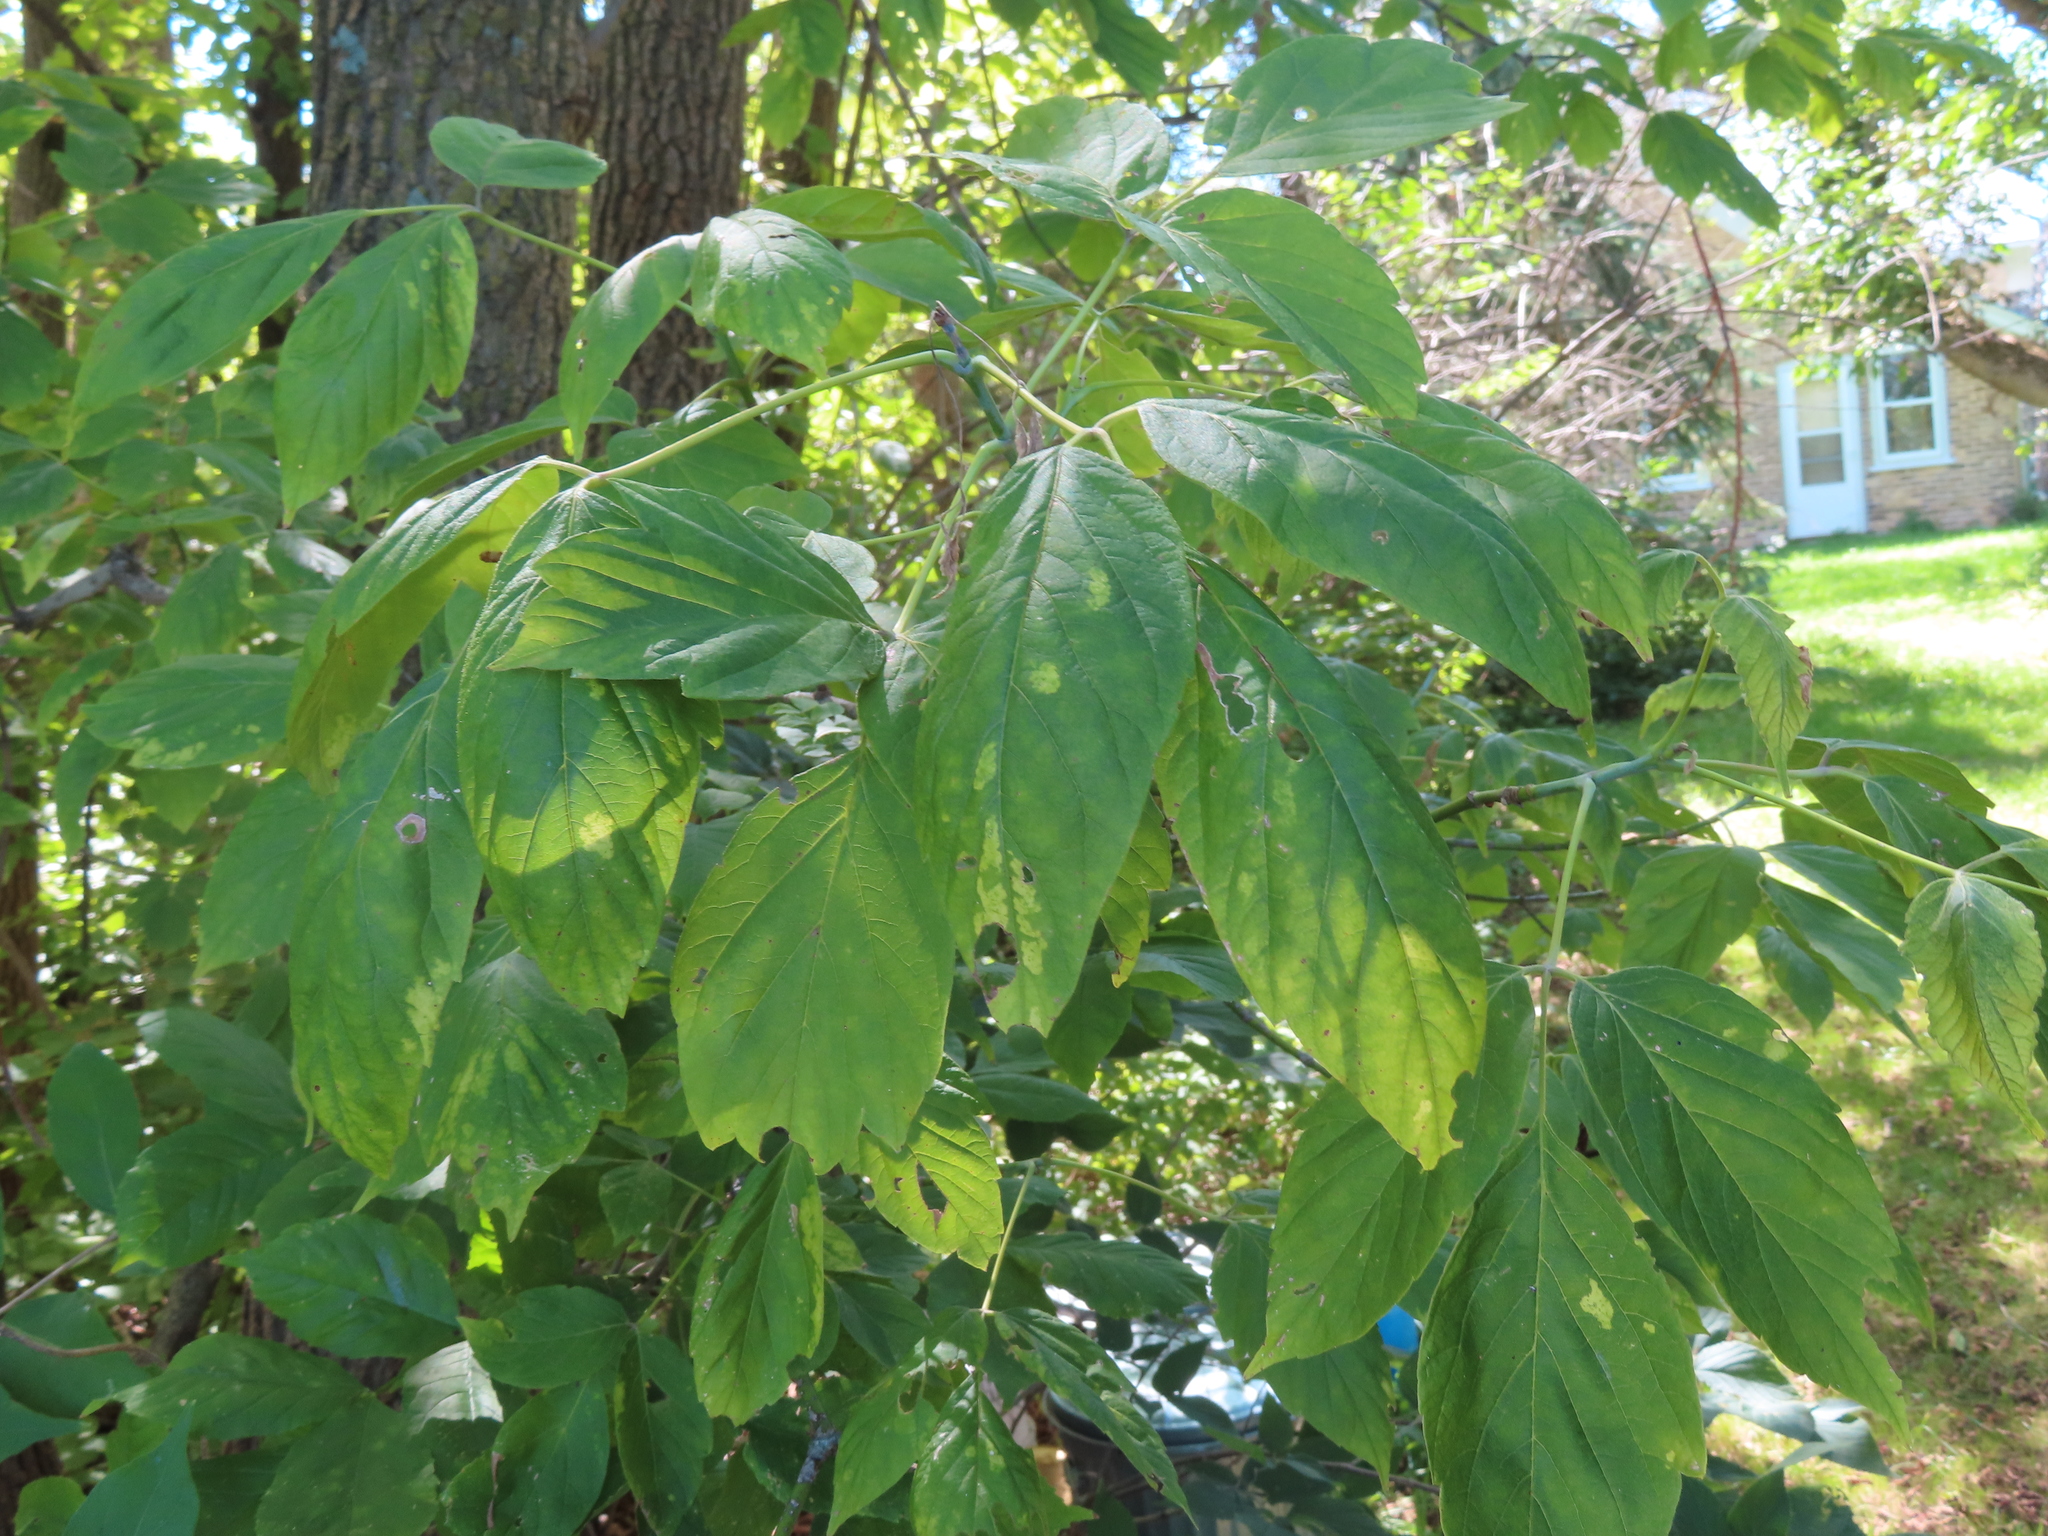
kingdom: Plantae
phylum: Tracheophyta
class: Magnoliopsida
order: Sapindales
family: Sapindaceae
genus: Acer
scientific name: Acer negundo
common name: Ashleaf maple
